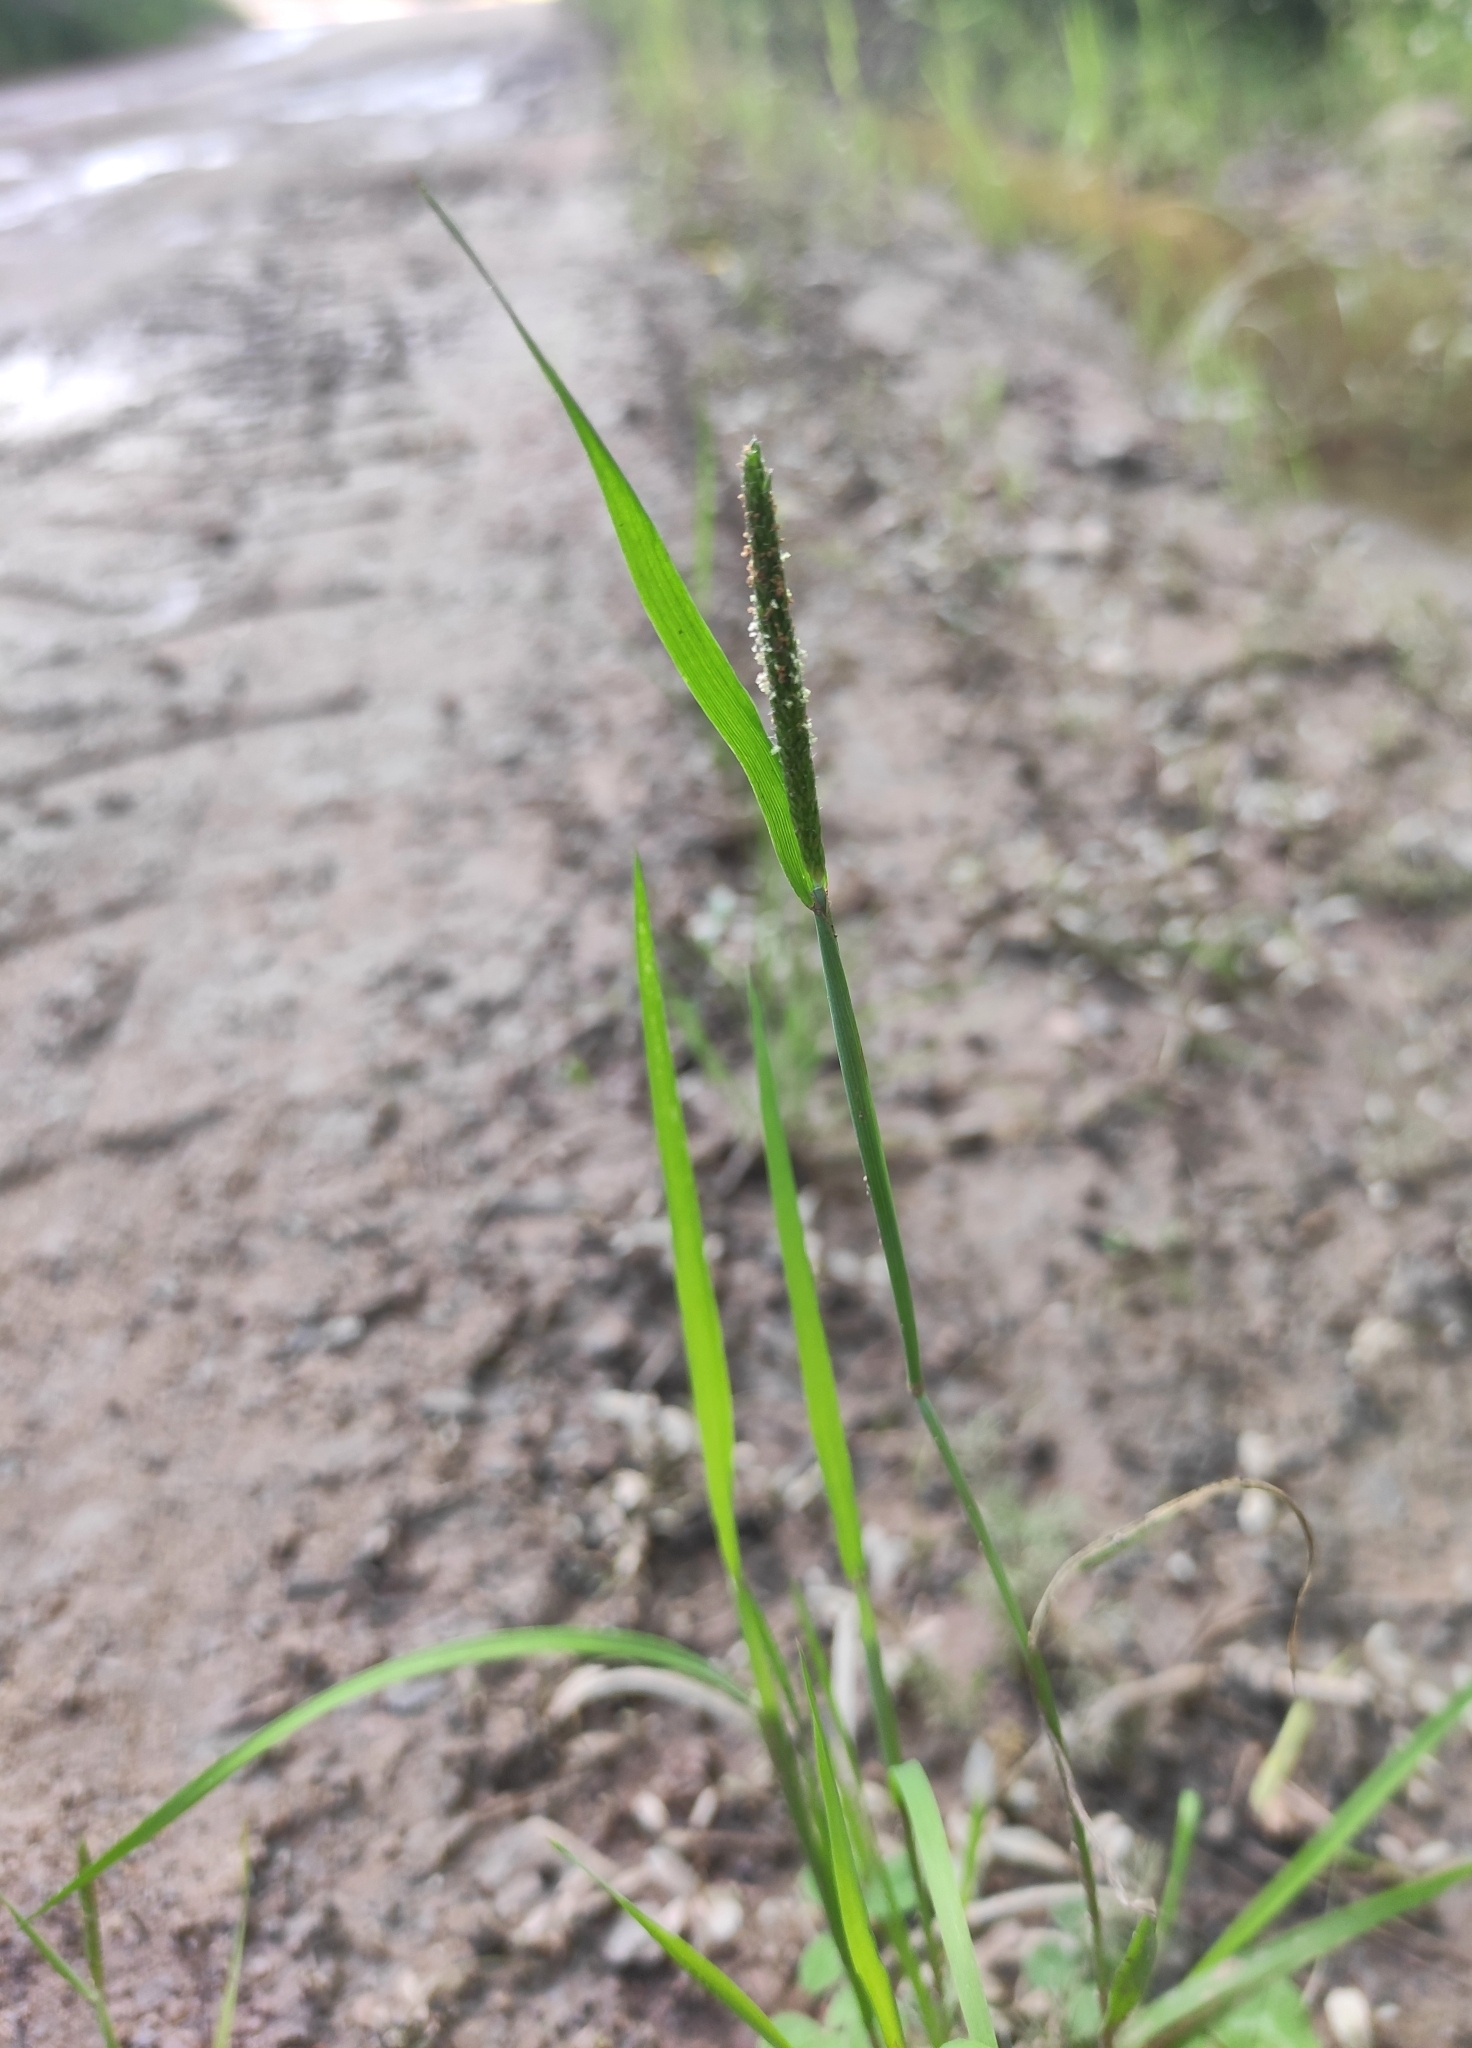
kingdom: Plantae
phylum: Tracheophyta
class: Liliopsida
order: Poales
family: Poaceae
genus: Alopecurus
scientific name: Alopecurus aequalis
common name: Orange foxtail
